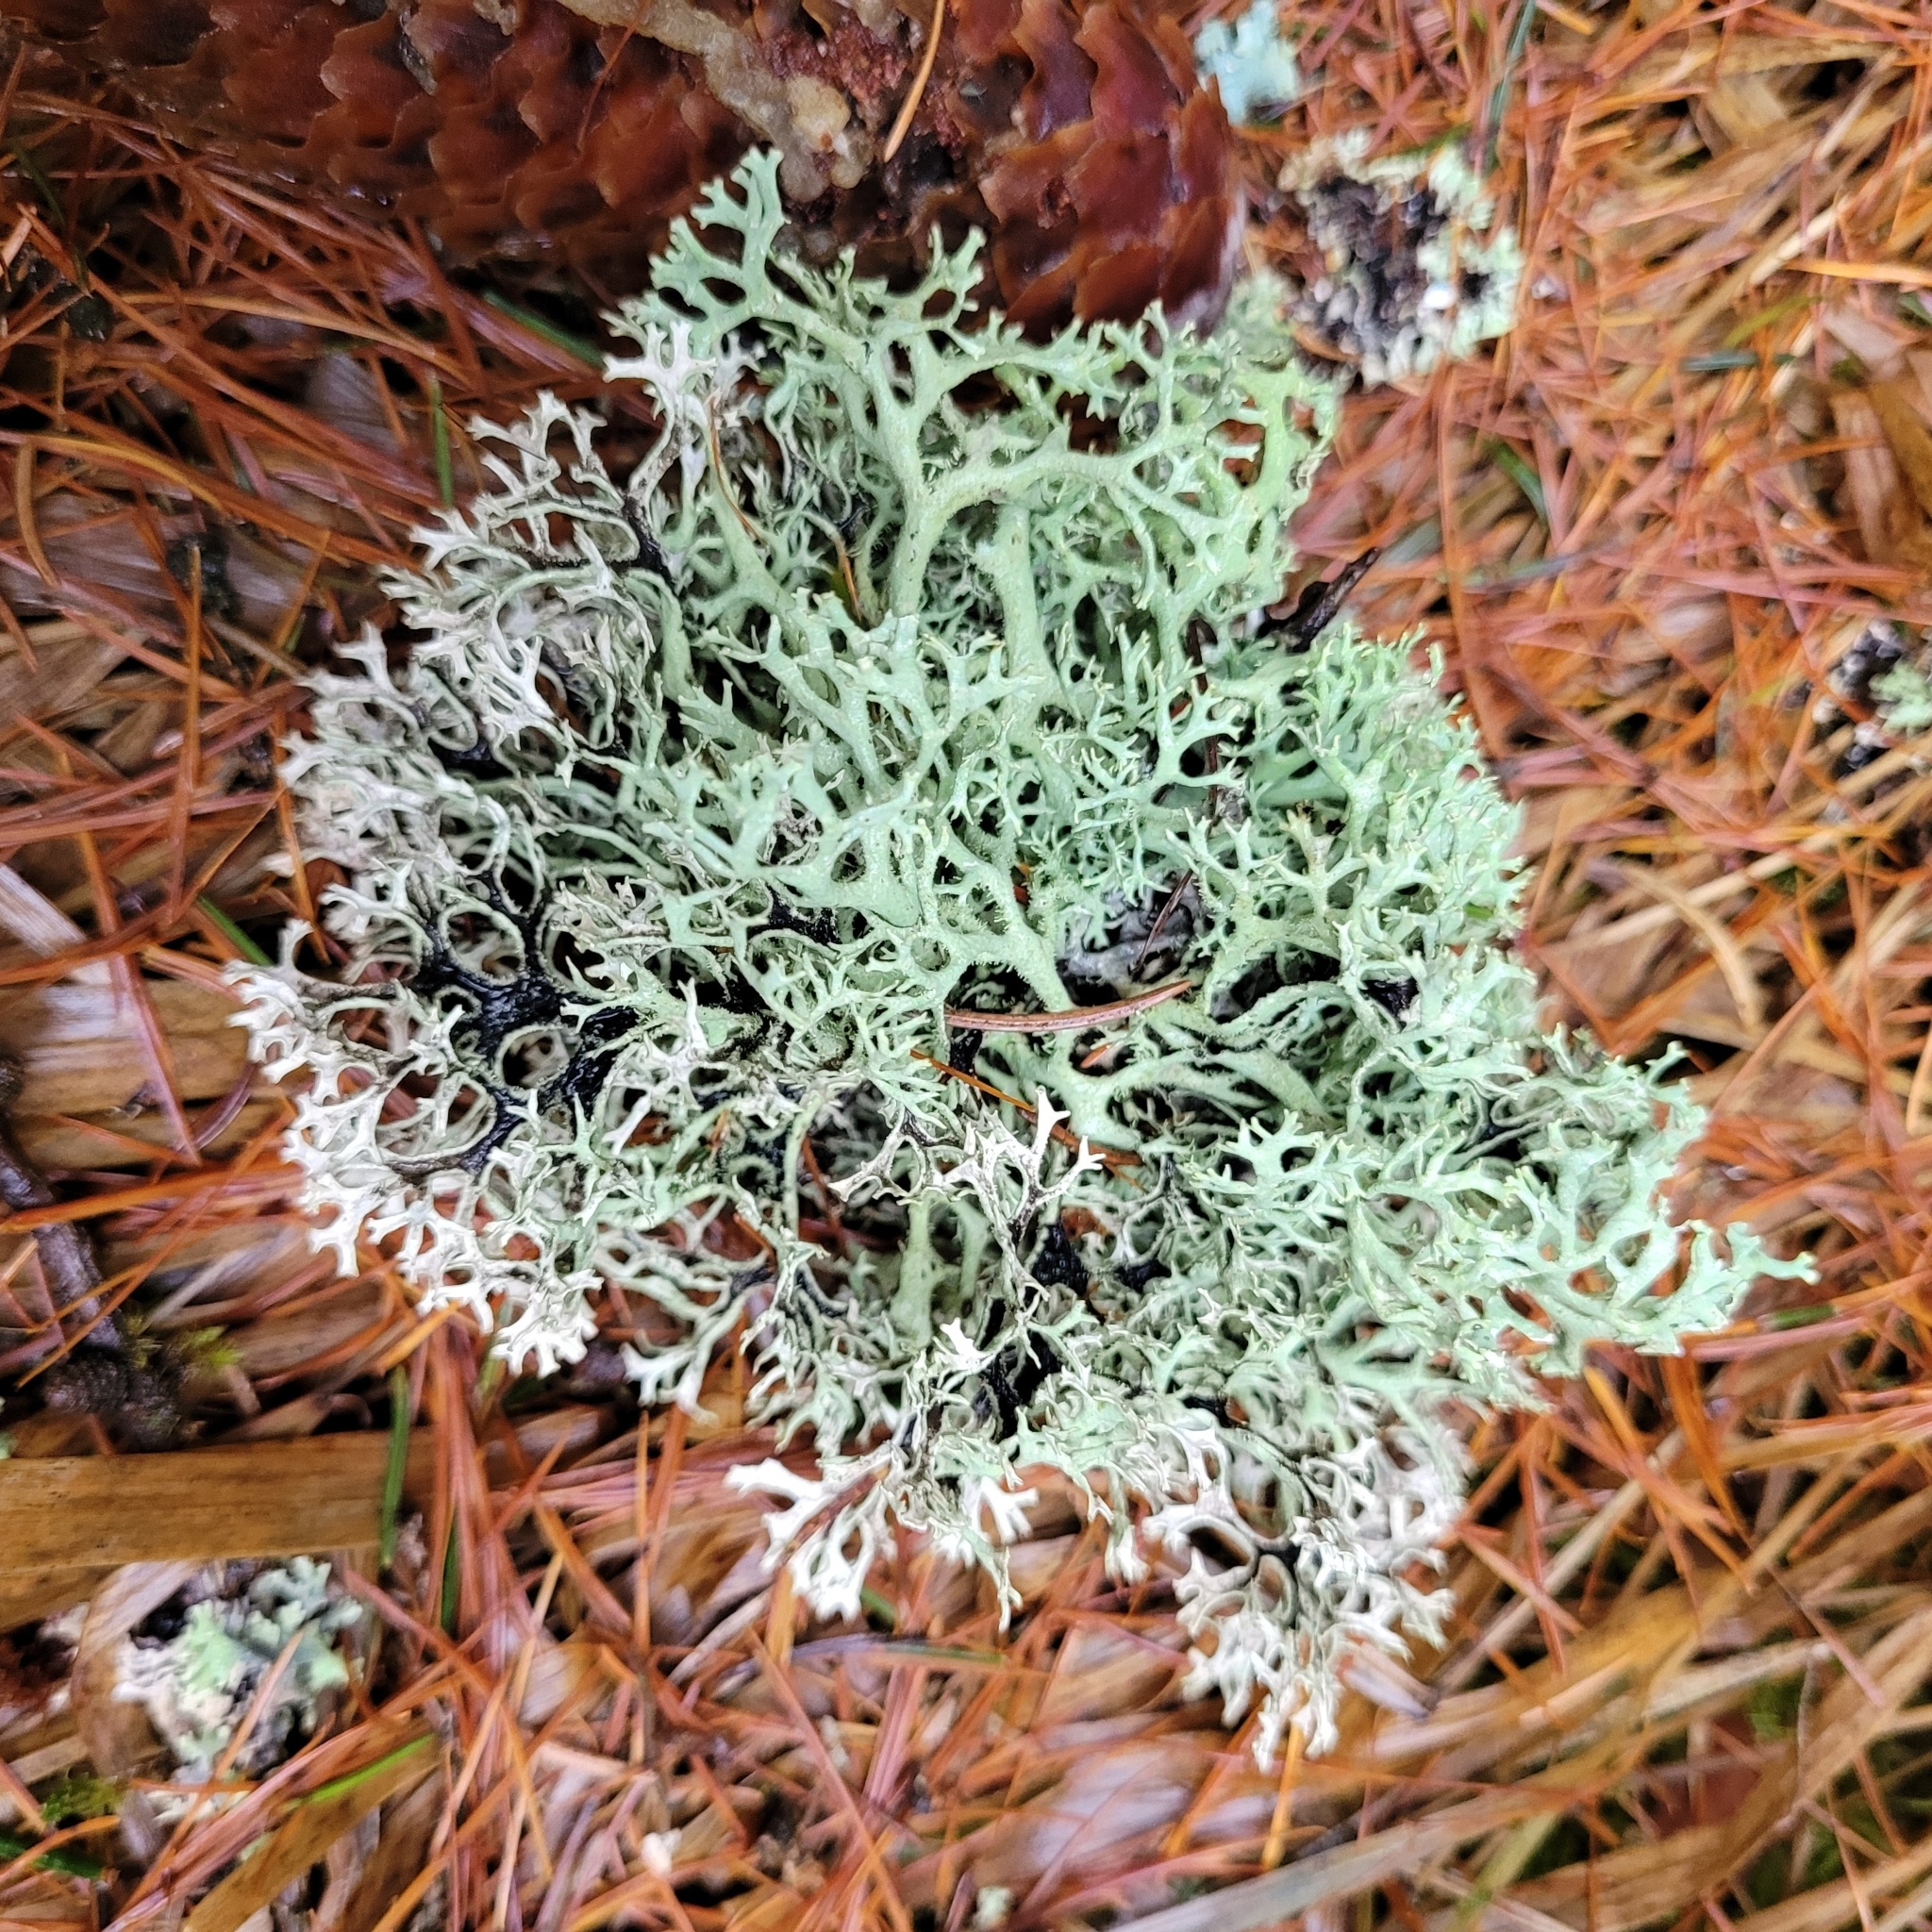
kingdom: Fungi
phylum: Ascomycota
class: Lecanoromycetes
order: Lecanorales
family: Parmeliaceae
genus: Pseudevernia
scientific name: Pseudevernia furfuracea
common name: Tree moss
